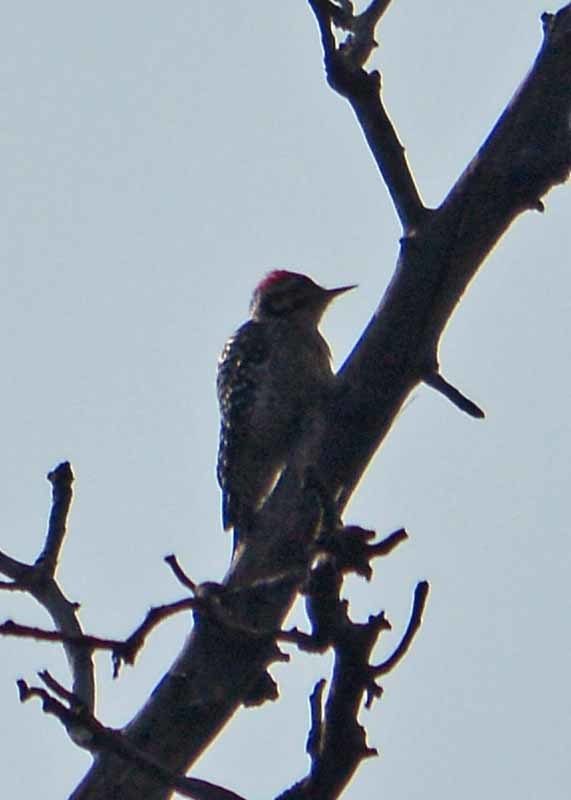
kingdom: Animalia
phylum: Chordata
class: Aves
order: Piciformes
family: Picidae
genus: Dryobates
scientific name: Dryobates scalaris
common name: Ladder-backed woodpecker
